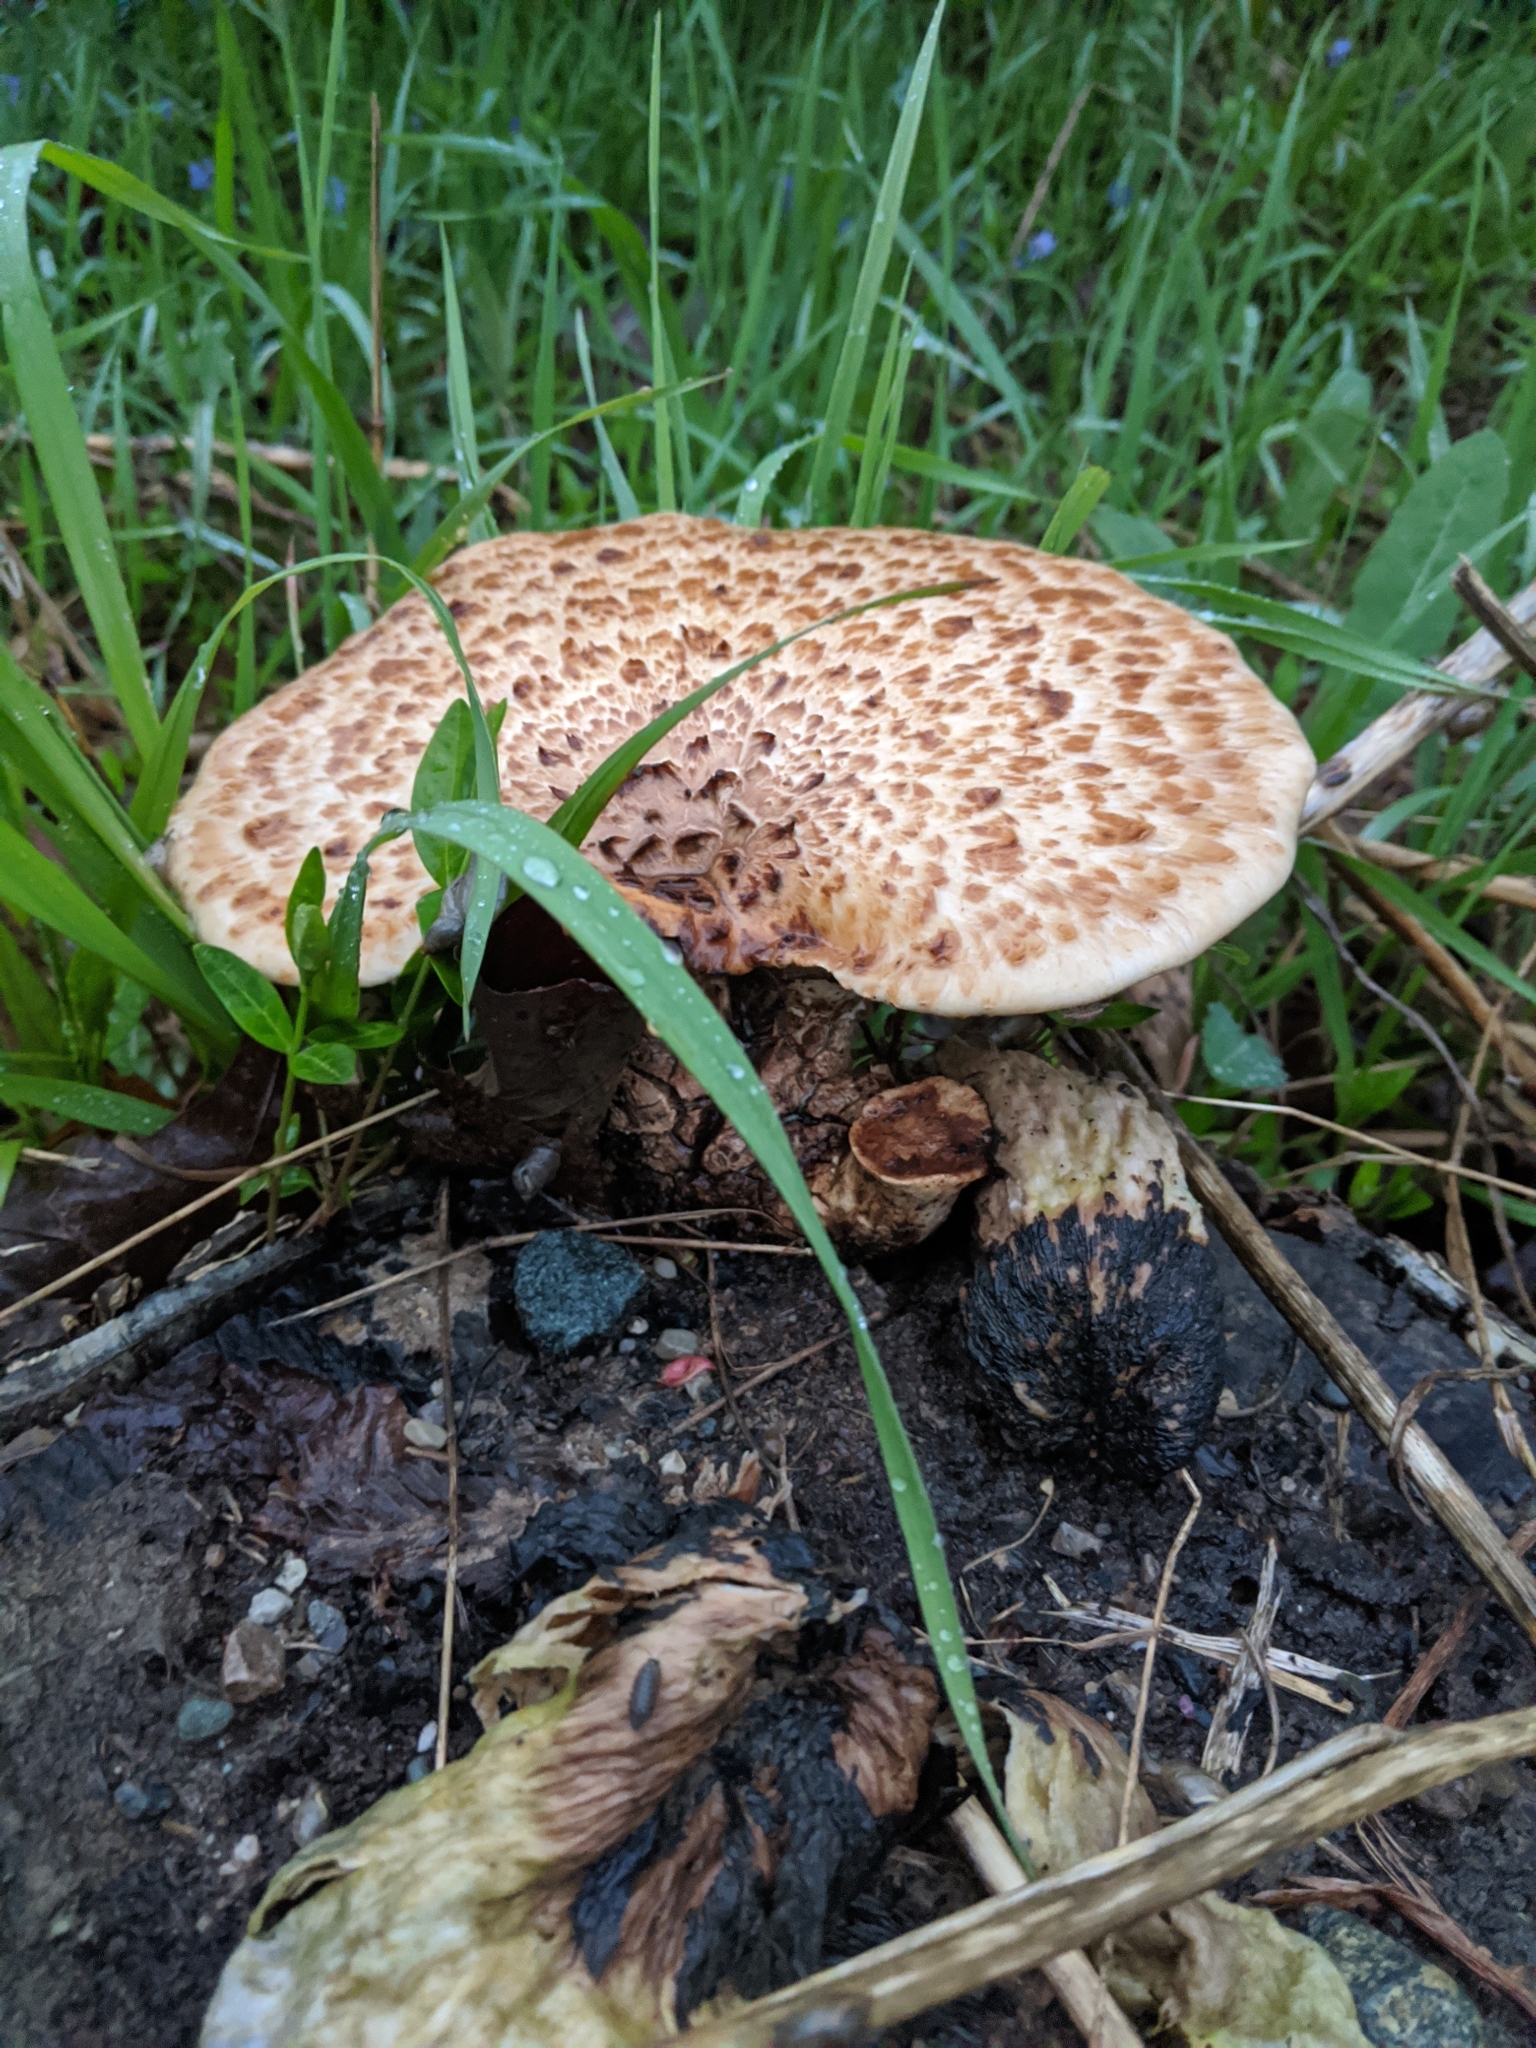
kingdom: Fungi
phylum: Basidiomycota
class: Agaricomycetes
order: Polyporales
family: Polyporaceae
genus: Cerioporus
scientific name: Cerioporus squamosus
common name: Dryad's saddle
